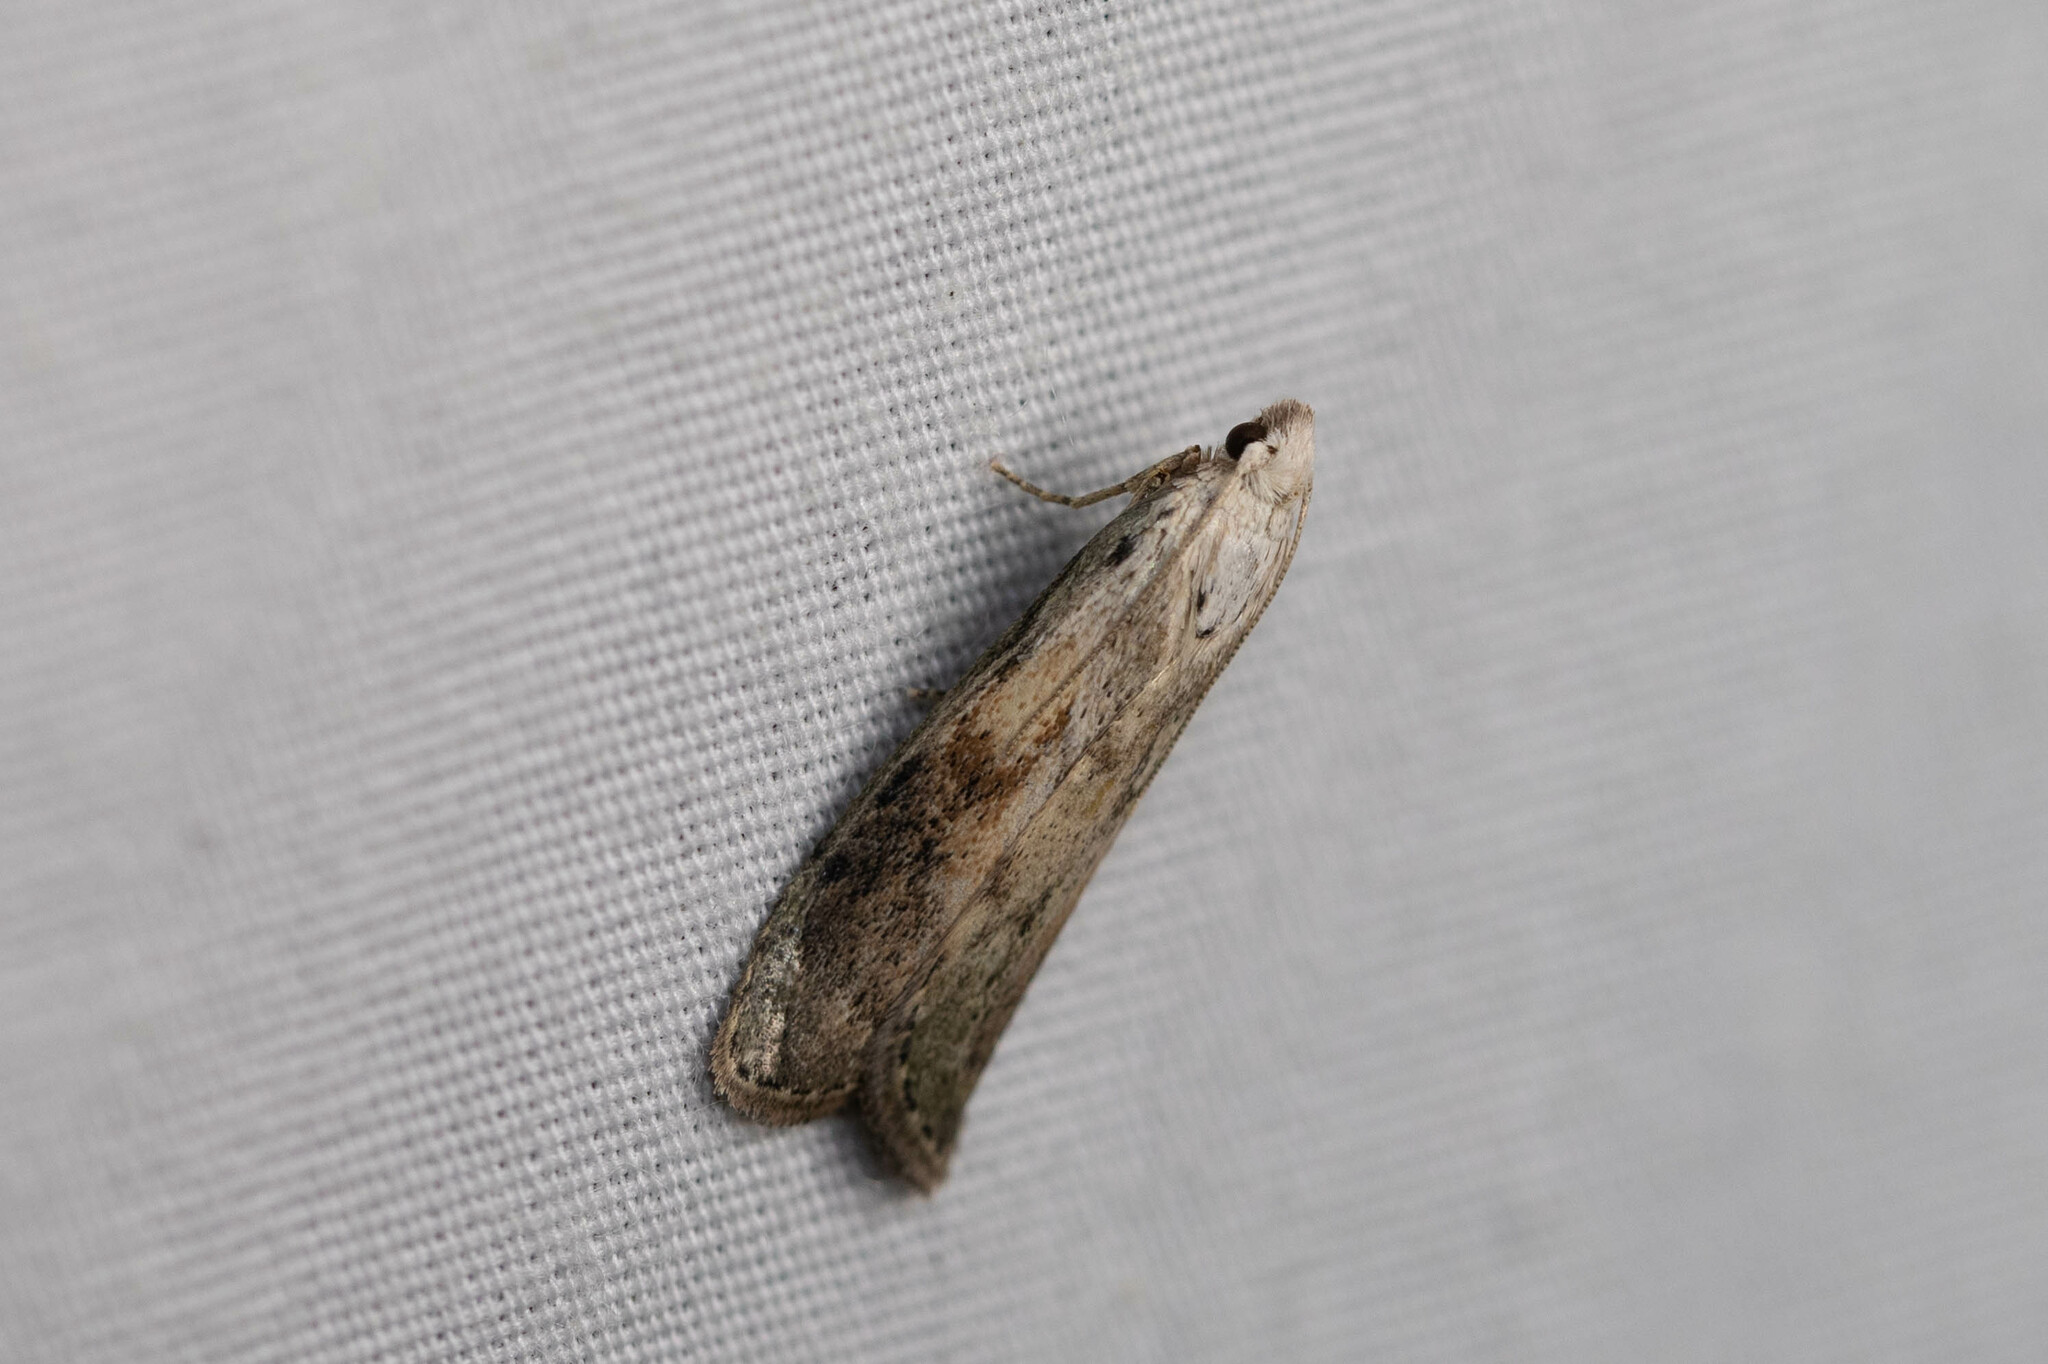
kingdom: Animalia
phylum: Arthropoda
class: Insecta
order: Lepidoptera
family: Pyralidae
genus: Aphomia
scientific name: Aphomia sociella
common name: Bee moth
